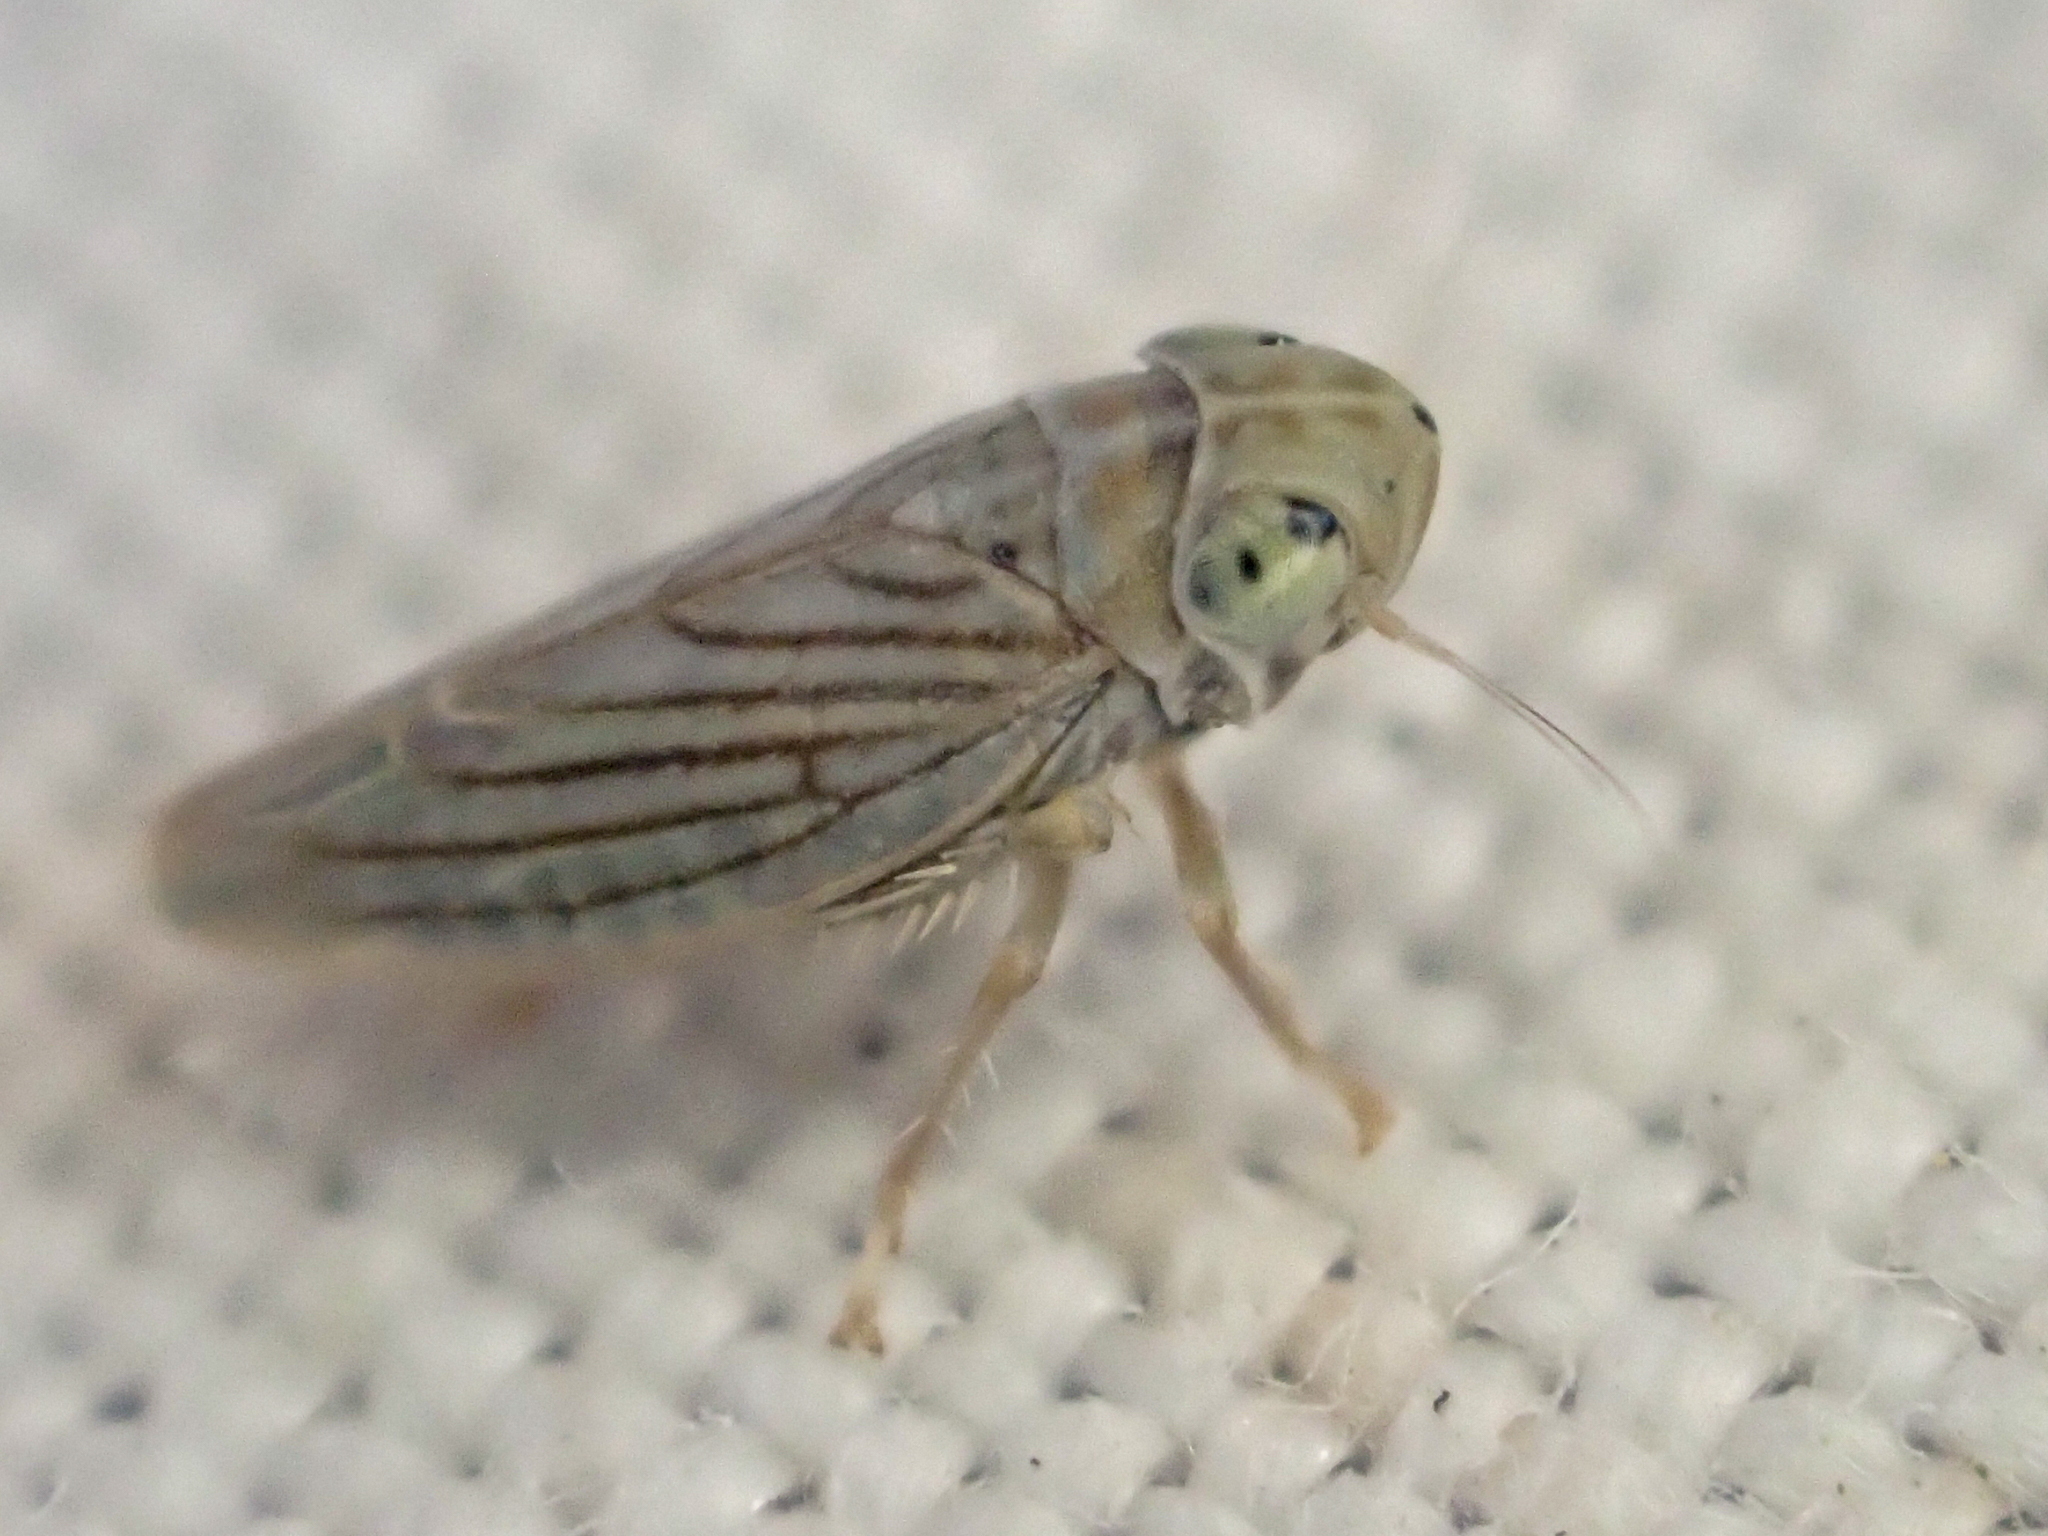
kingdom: Animalia
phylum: Arthropoda
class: Insecta
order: Hemiptera
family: Cicadellidae
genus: Neocoelidia
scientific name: Neocoelidia lactipennis
